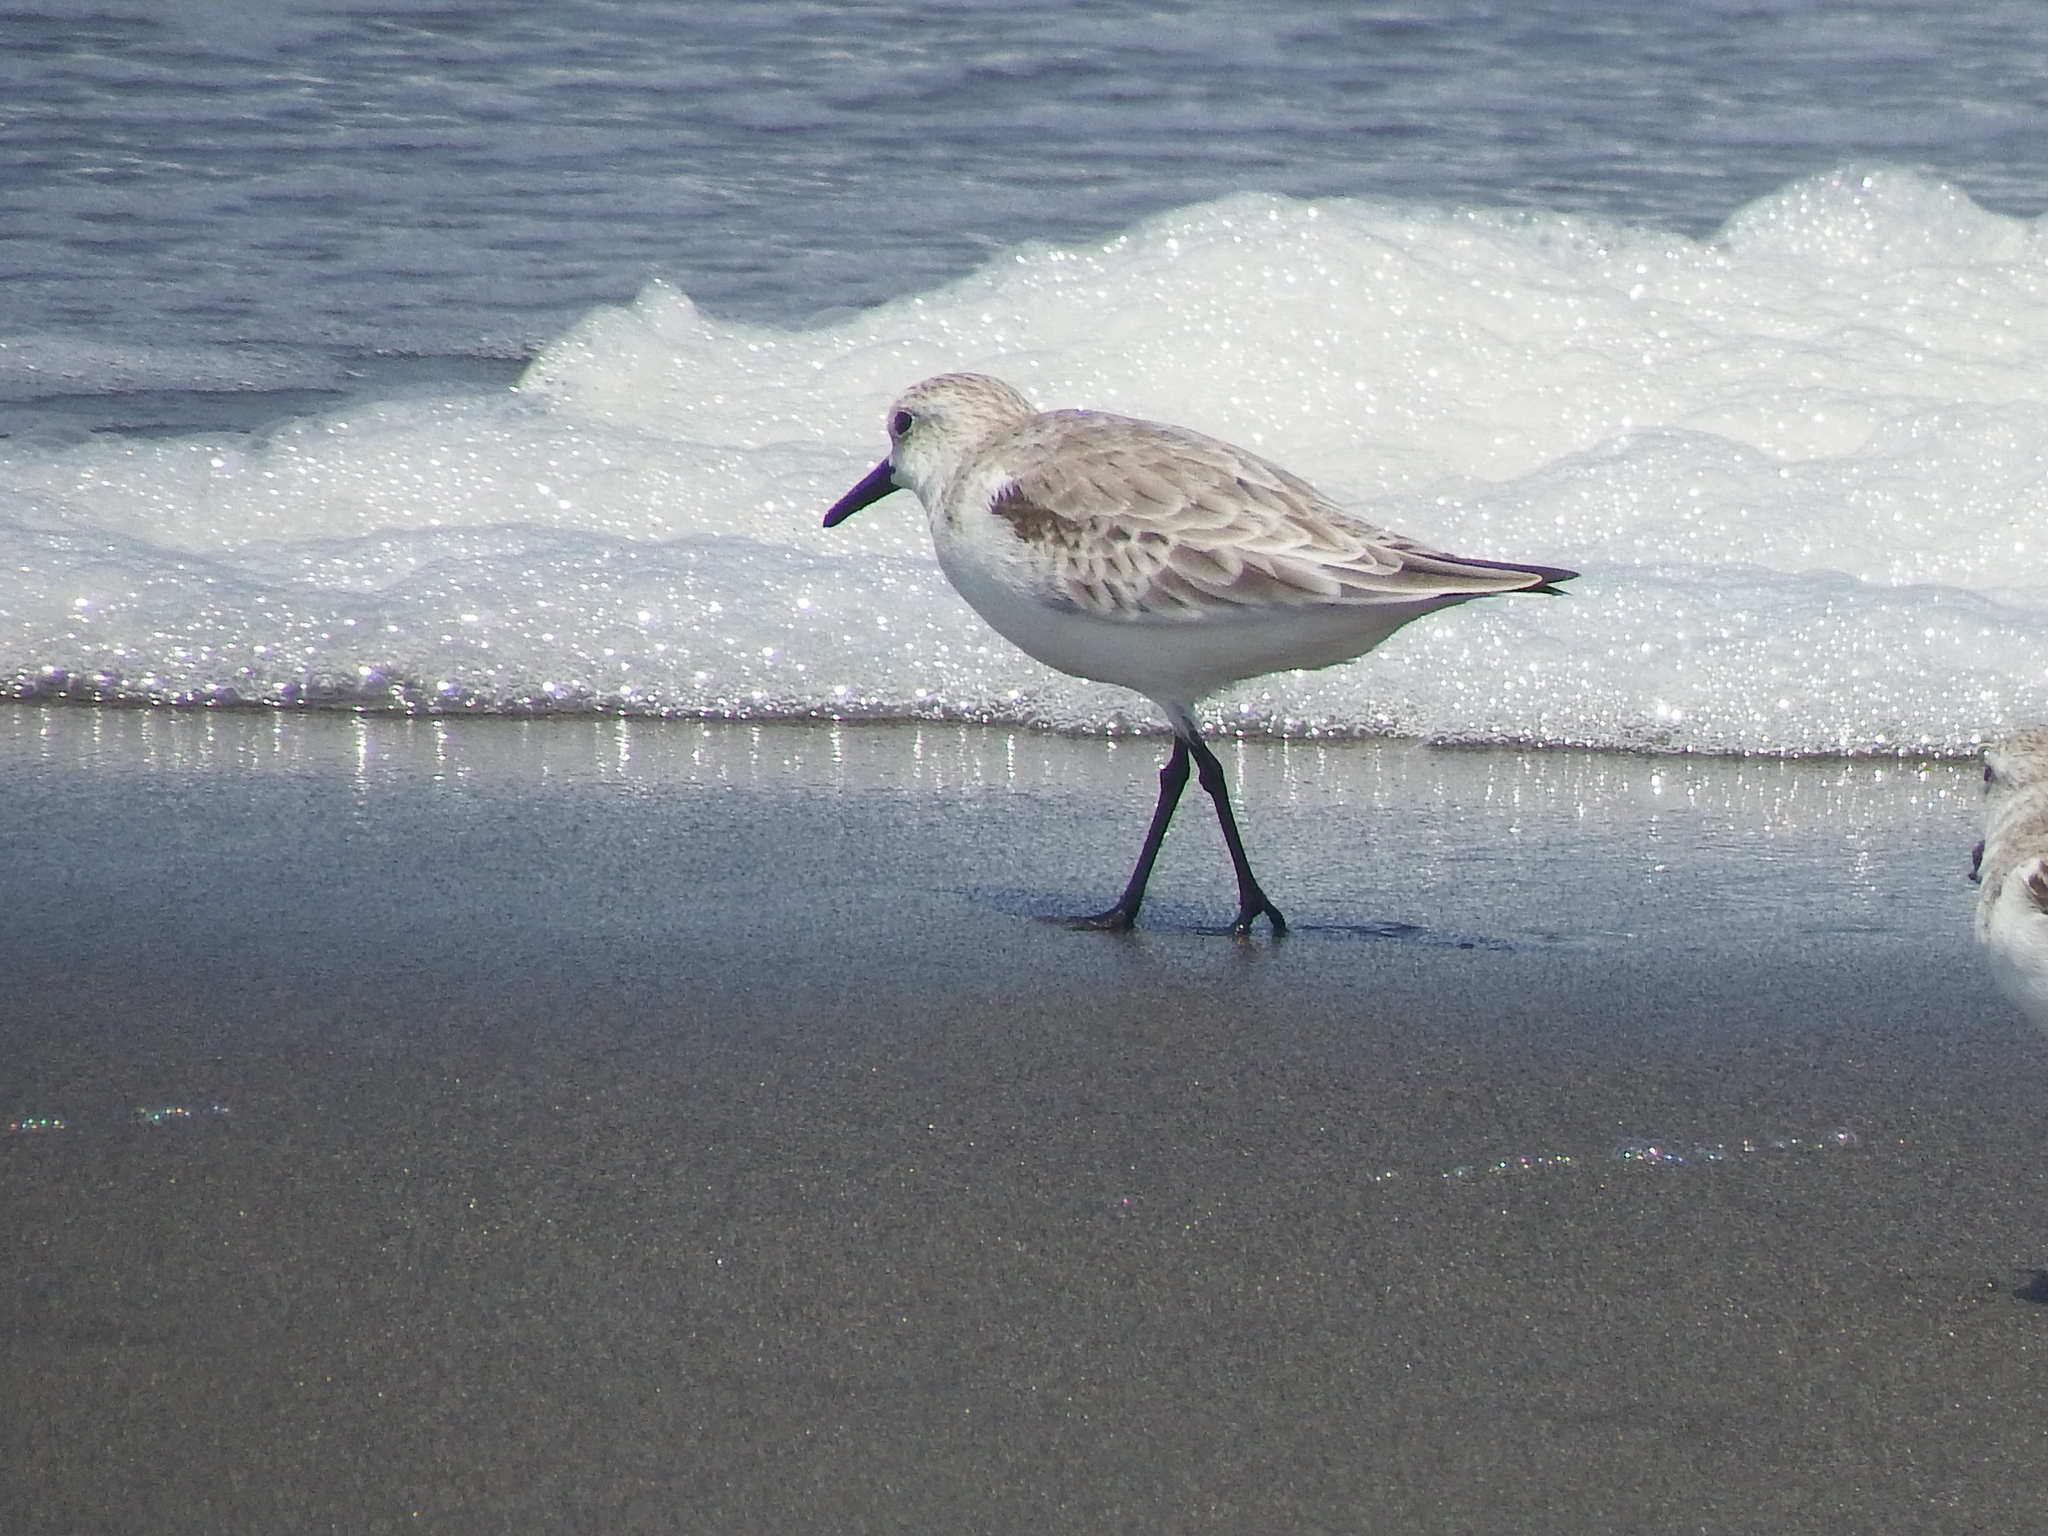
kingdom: Animalia
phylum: Chordata
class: Aves
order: Charadriiformes
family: Scolopacidae
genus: Calidris
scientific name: Calidris alba
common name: Sanderling
